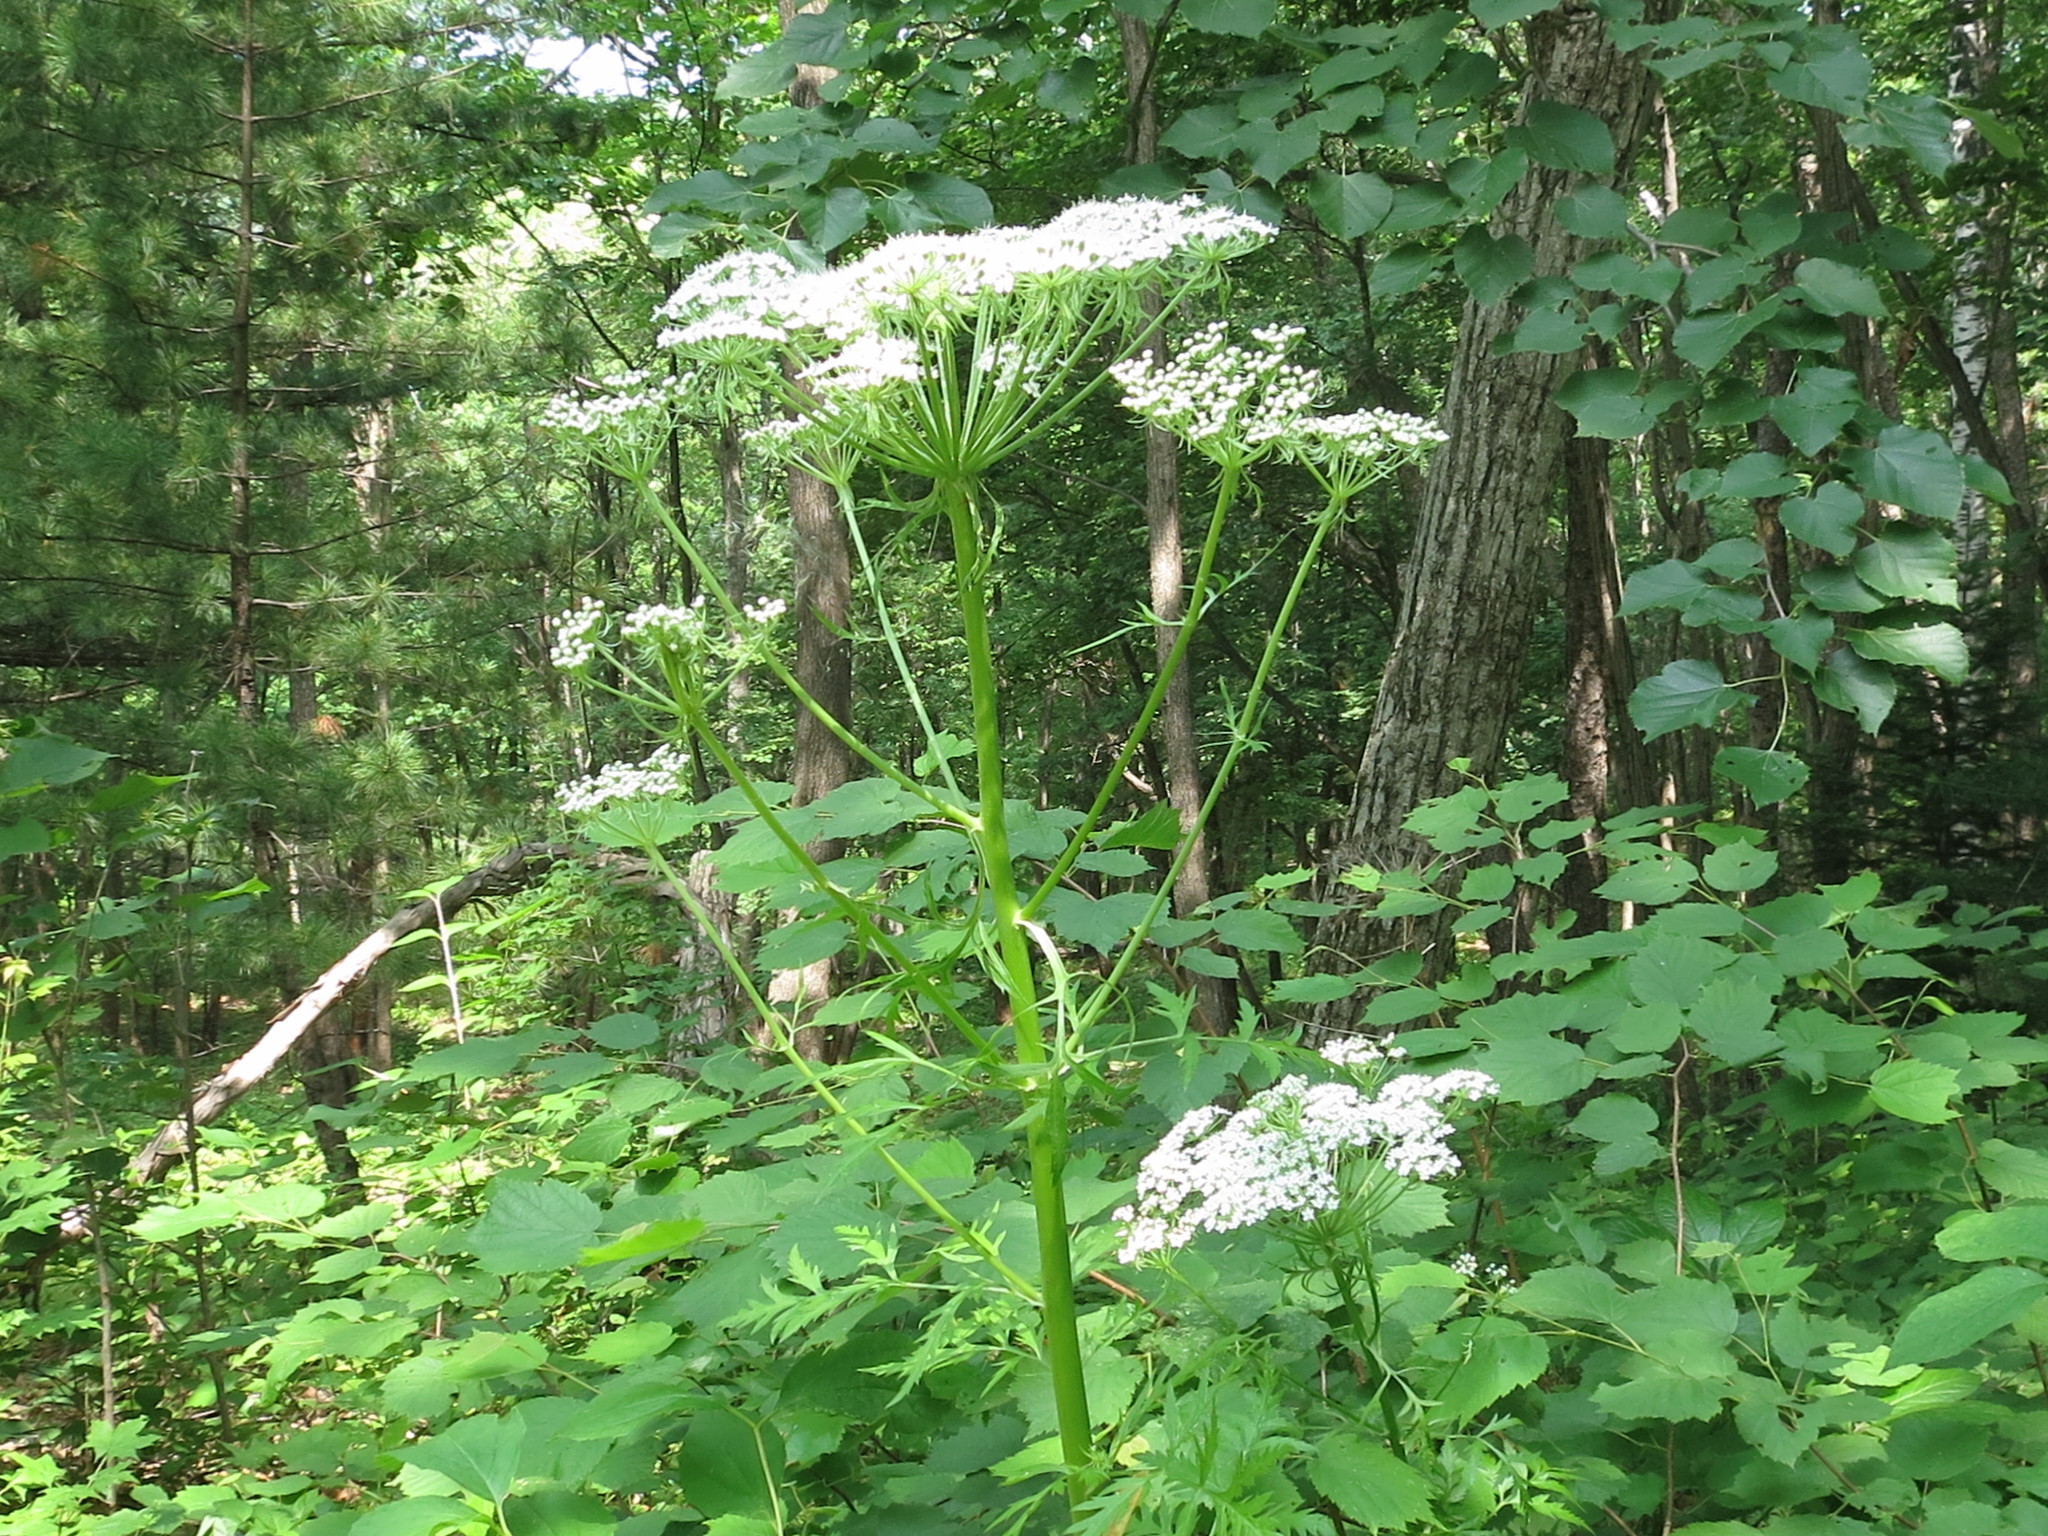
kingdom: Plantae
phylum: Tracheophyta
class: Magnoliopsida
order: Apiales
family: Apiaceae
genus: Pleurospermum
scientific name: Pleurospermum uralense
